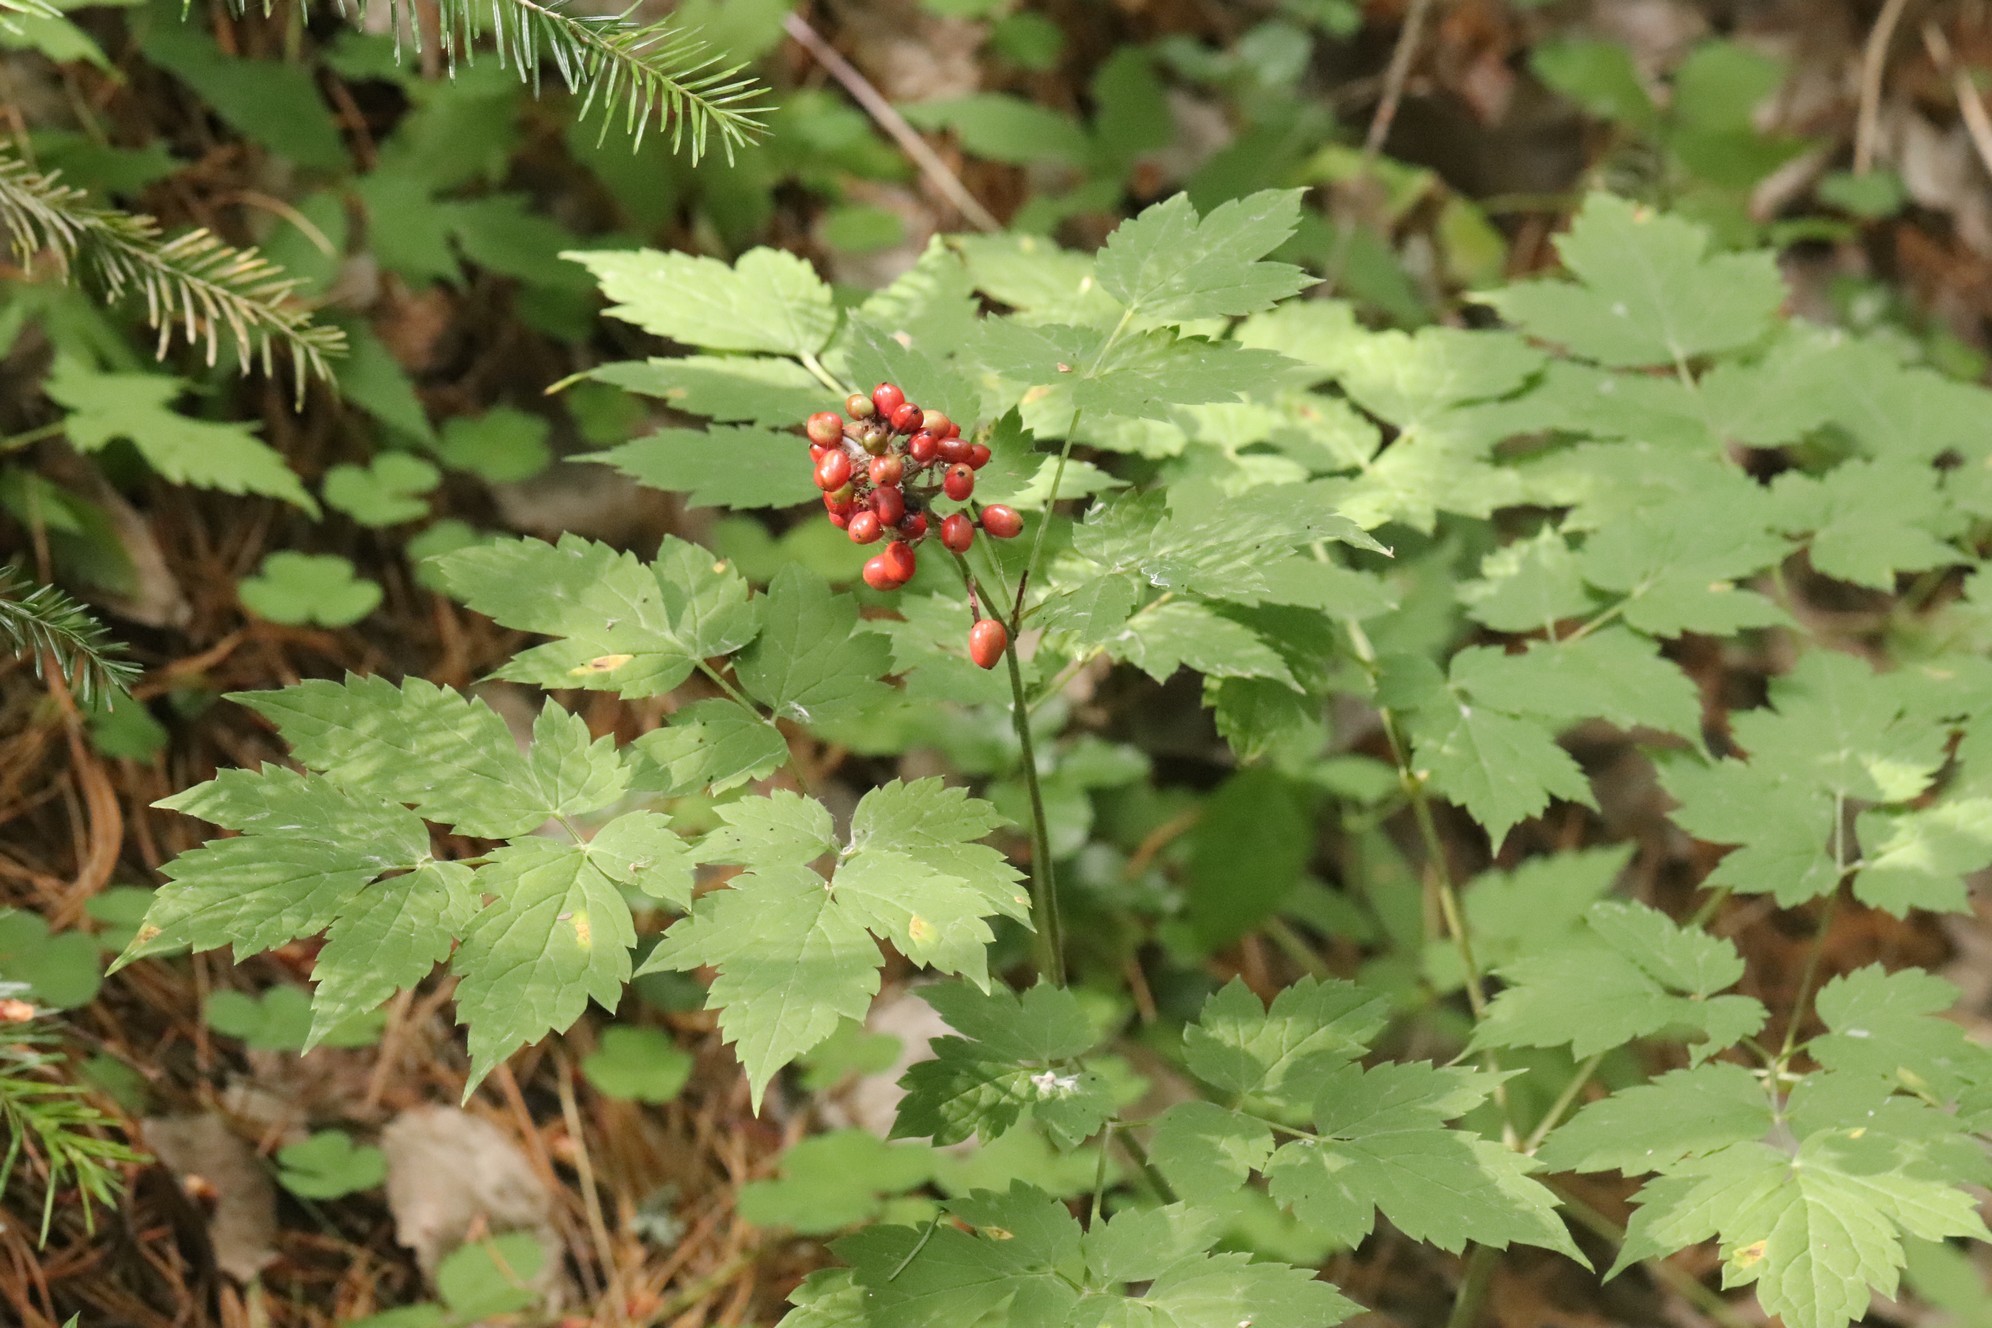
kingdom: Plantae
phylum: Tracheophyta
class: Magnoliopsida
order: Ranunculales
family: Ranunculaceae
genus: Actaea
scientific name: Actaea erythrocarpa
